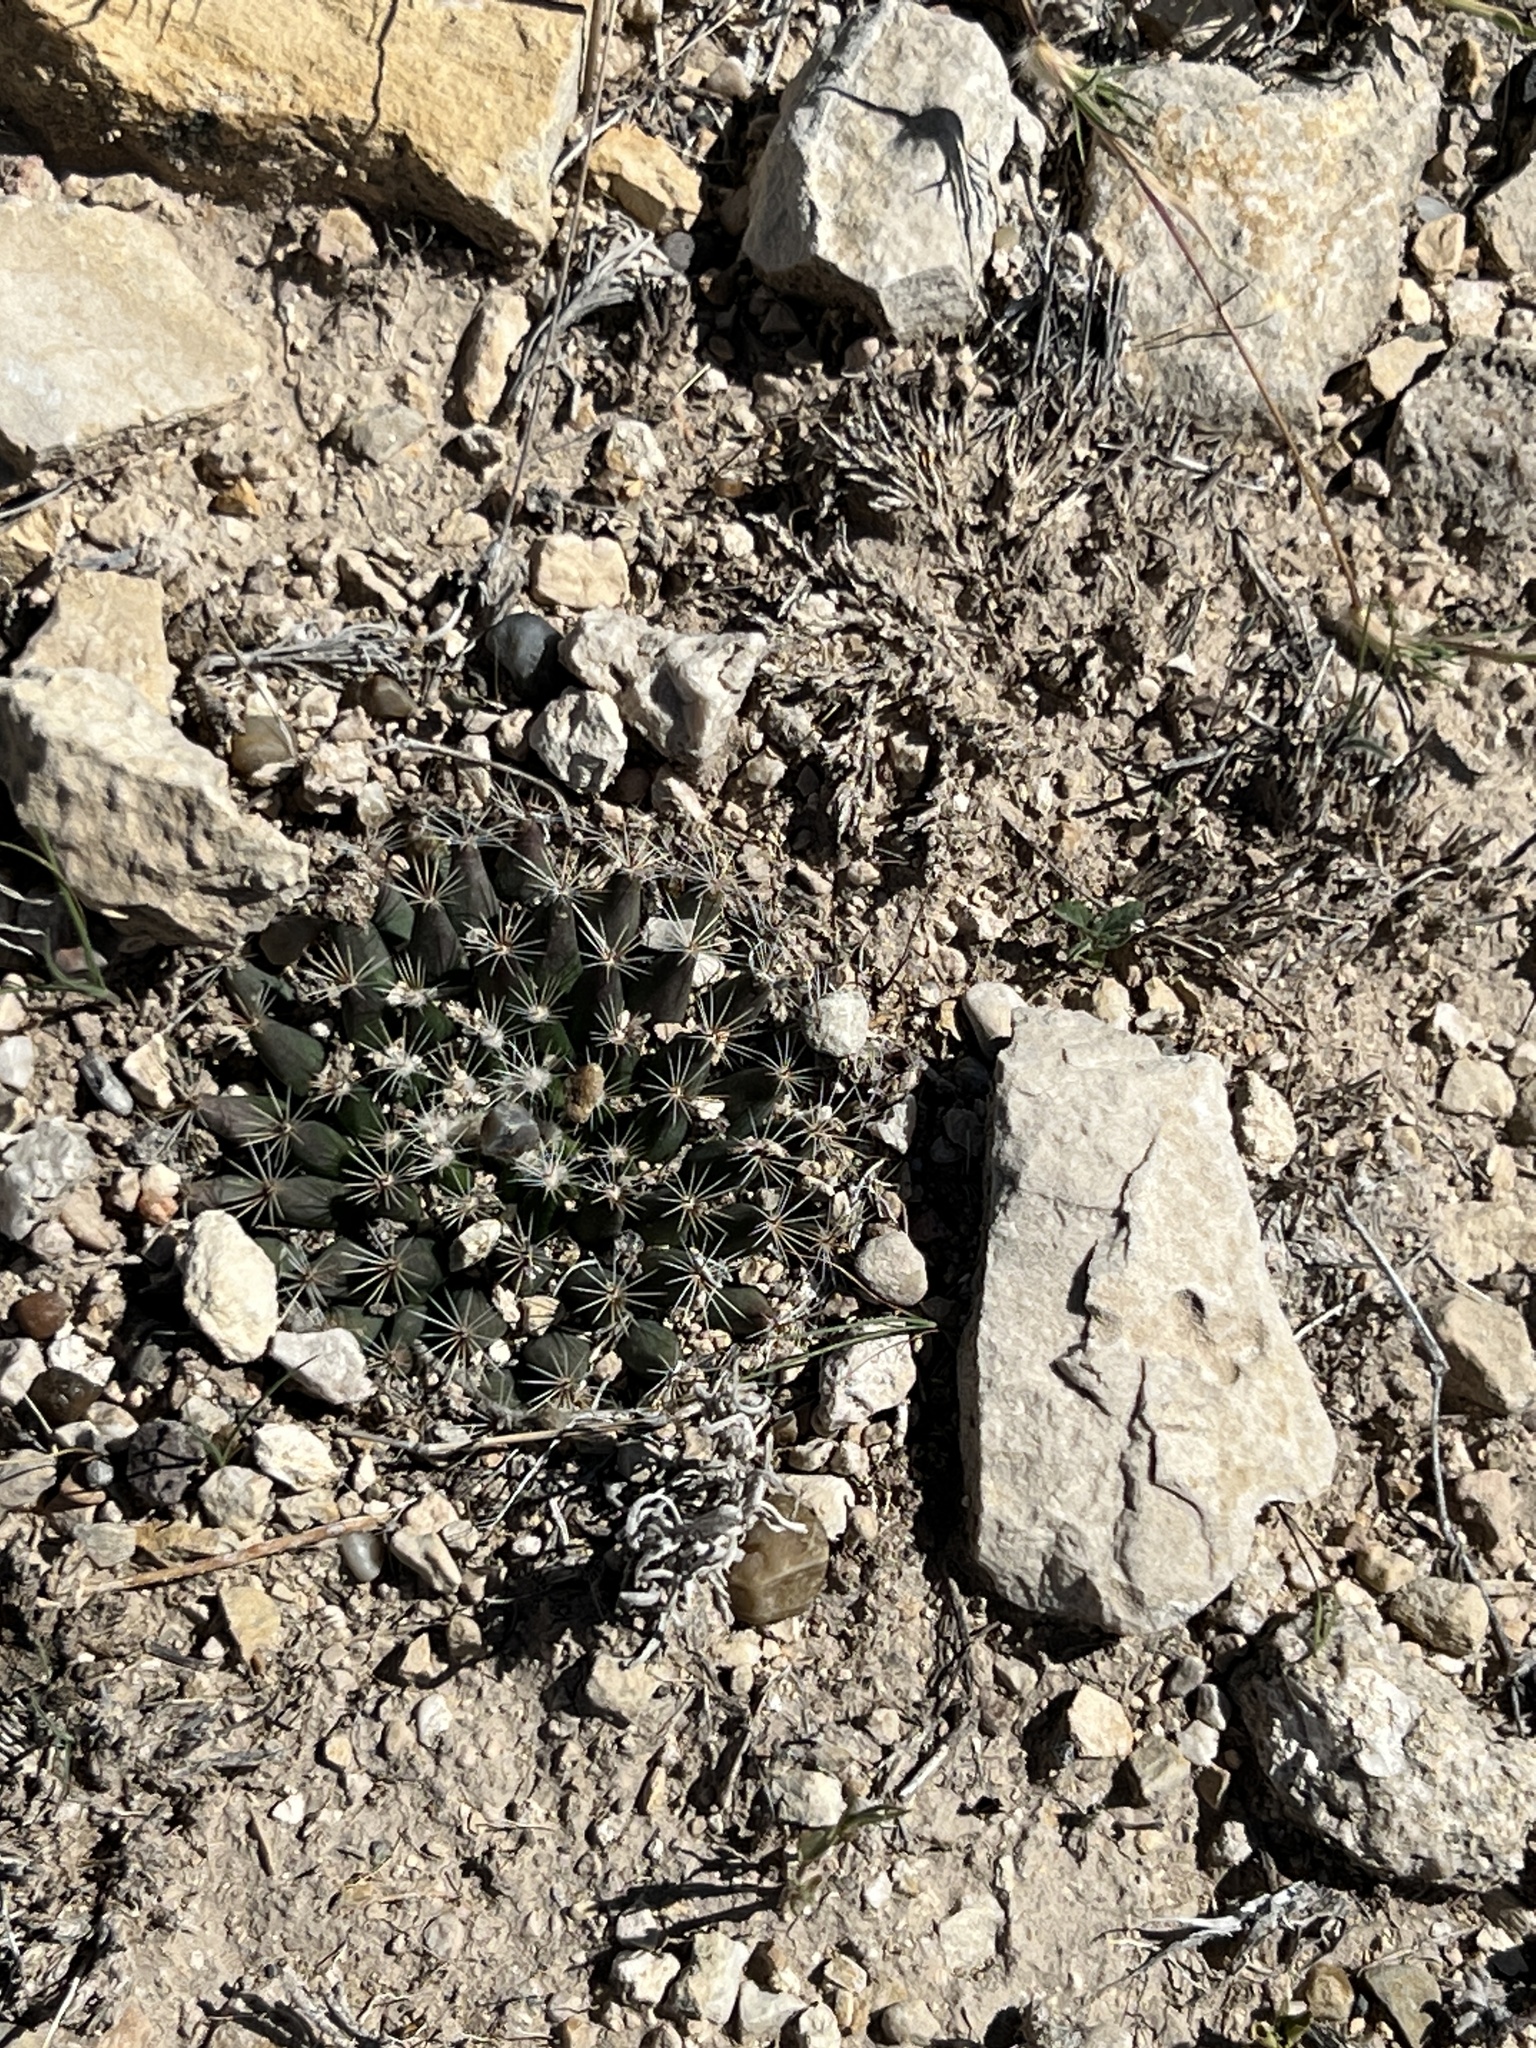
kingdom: Plantae
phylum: Tracheophyta
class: Magnoliopsida
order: Caryophyllales
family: Cactaceae
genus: Mammillaria
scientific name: Mammillaria heyderi
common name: Little nipple cactus
